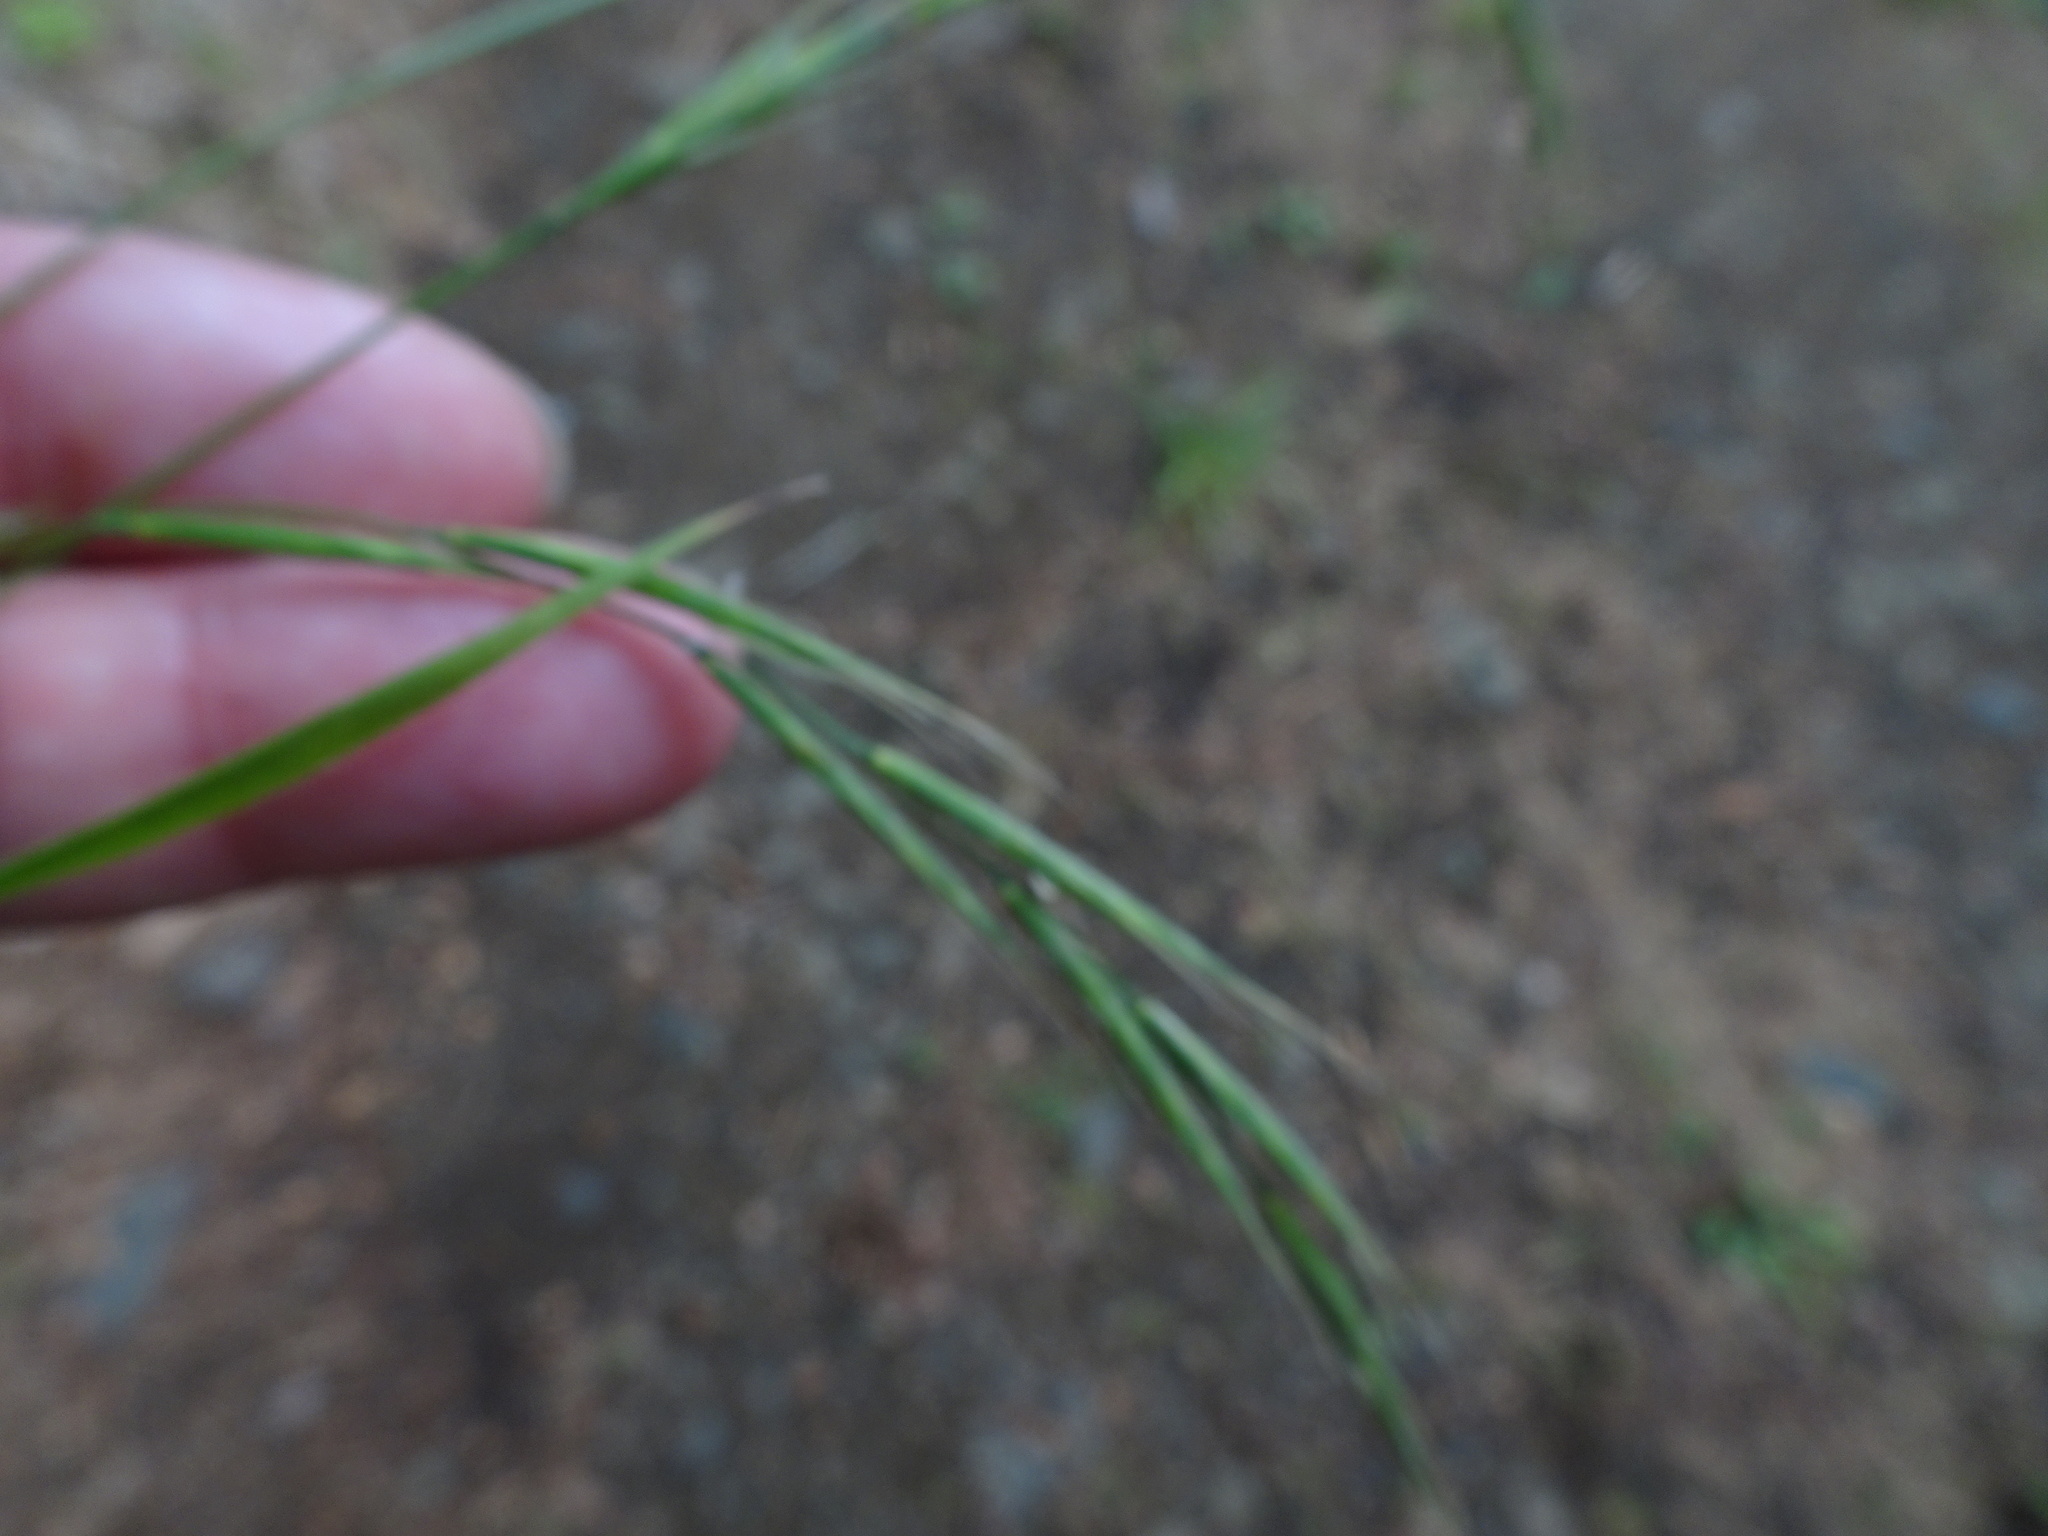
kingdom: Plantae
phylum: Tracheophyta
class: Liliopsida
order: Poales
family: Poaceae
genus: Brachypodium
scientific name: Brachypodium sylvaticum
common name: False-brome
